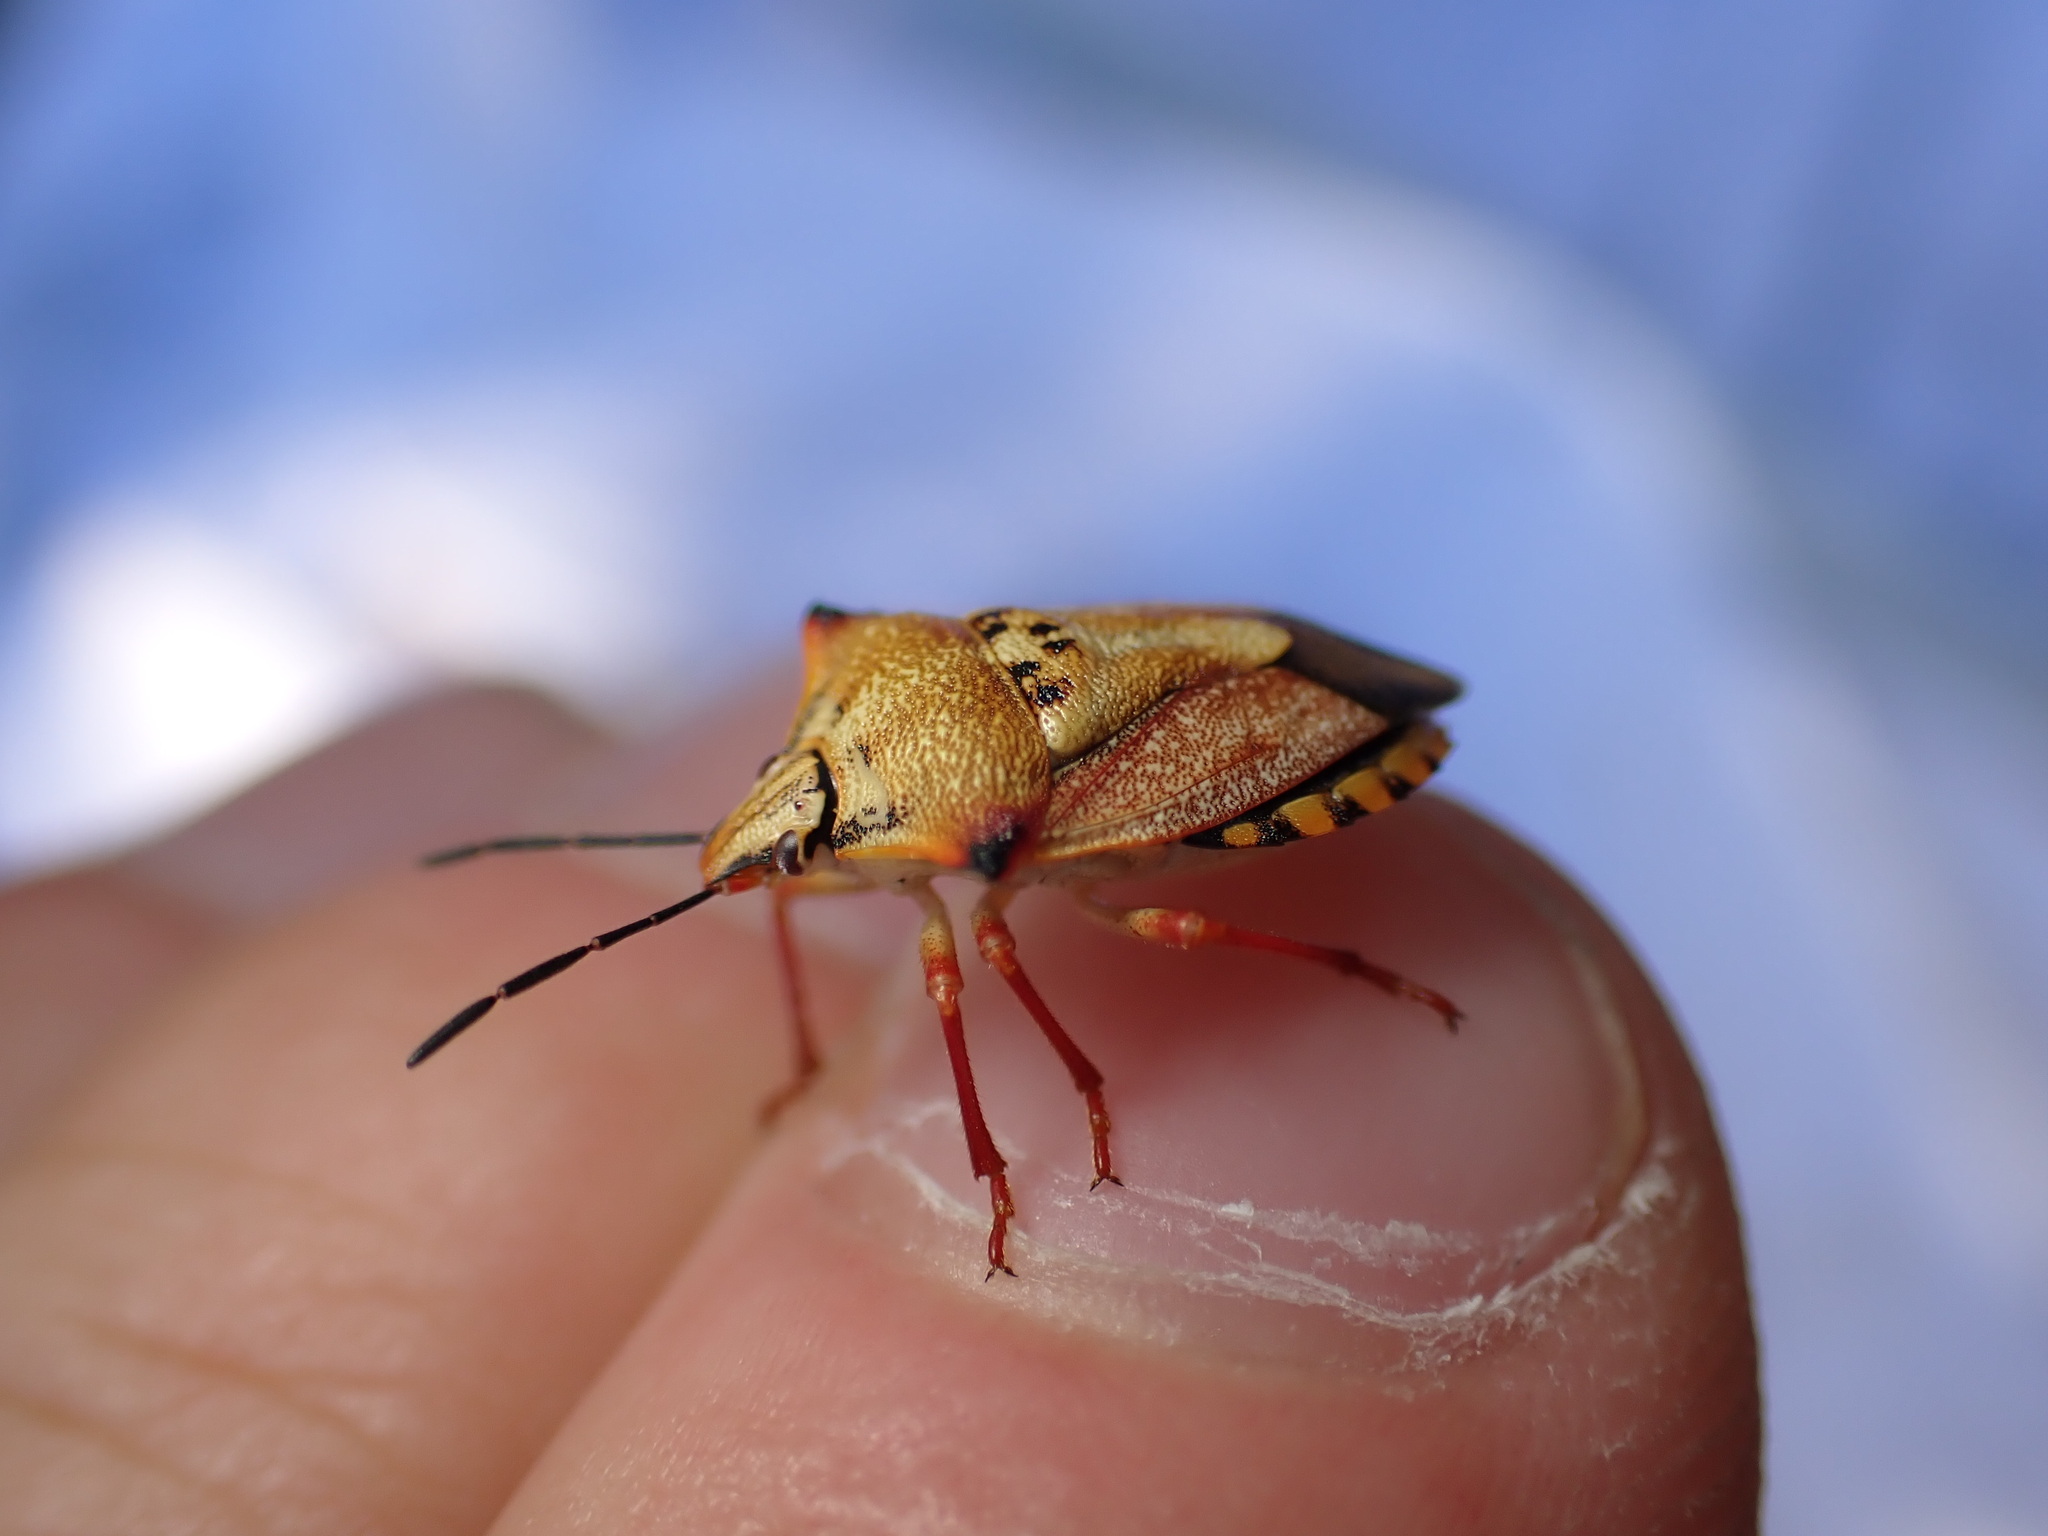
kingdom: Animalia
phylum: Arthropoda
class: Insecta
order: Hemiptera
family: Pentatomidae
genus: Carpocoris
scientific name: Carpocoris mediterraneus
